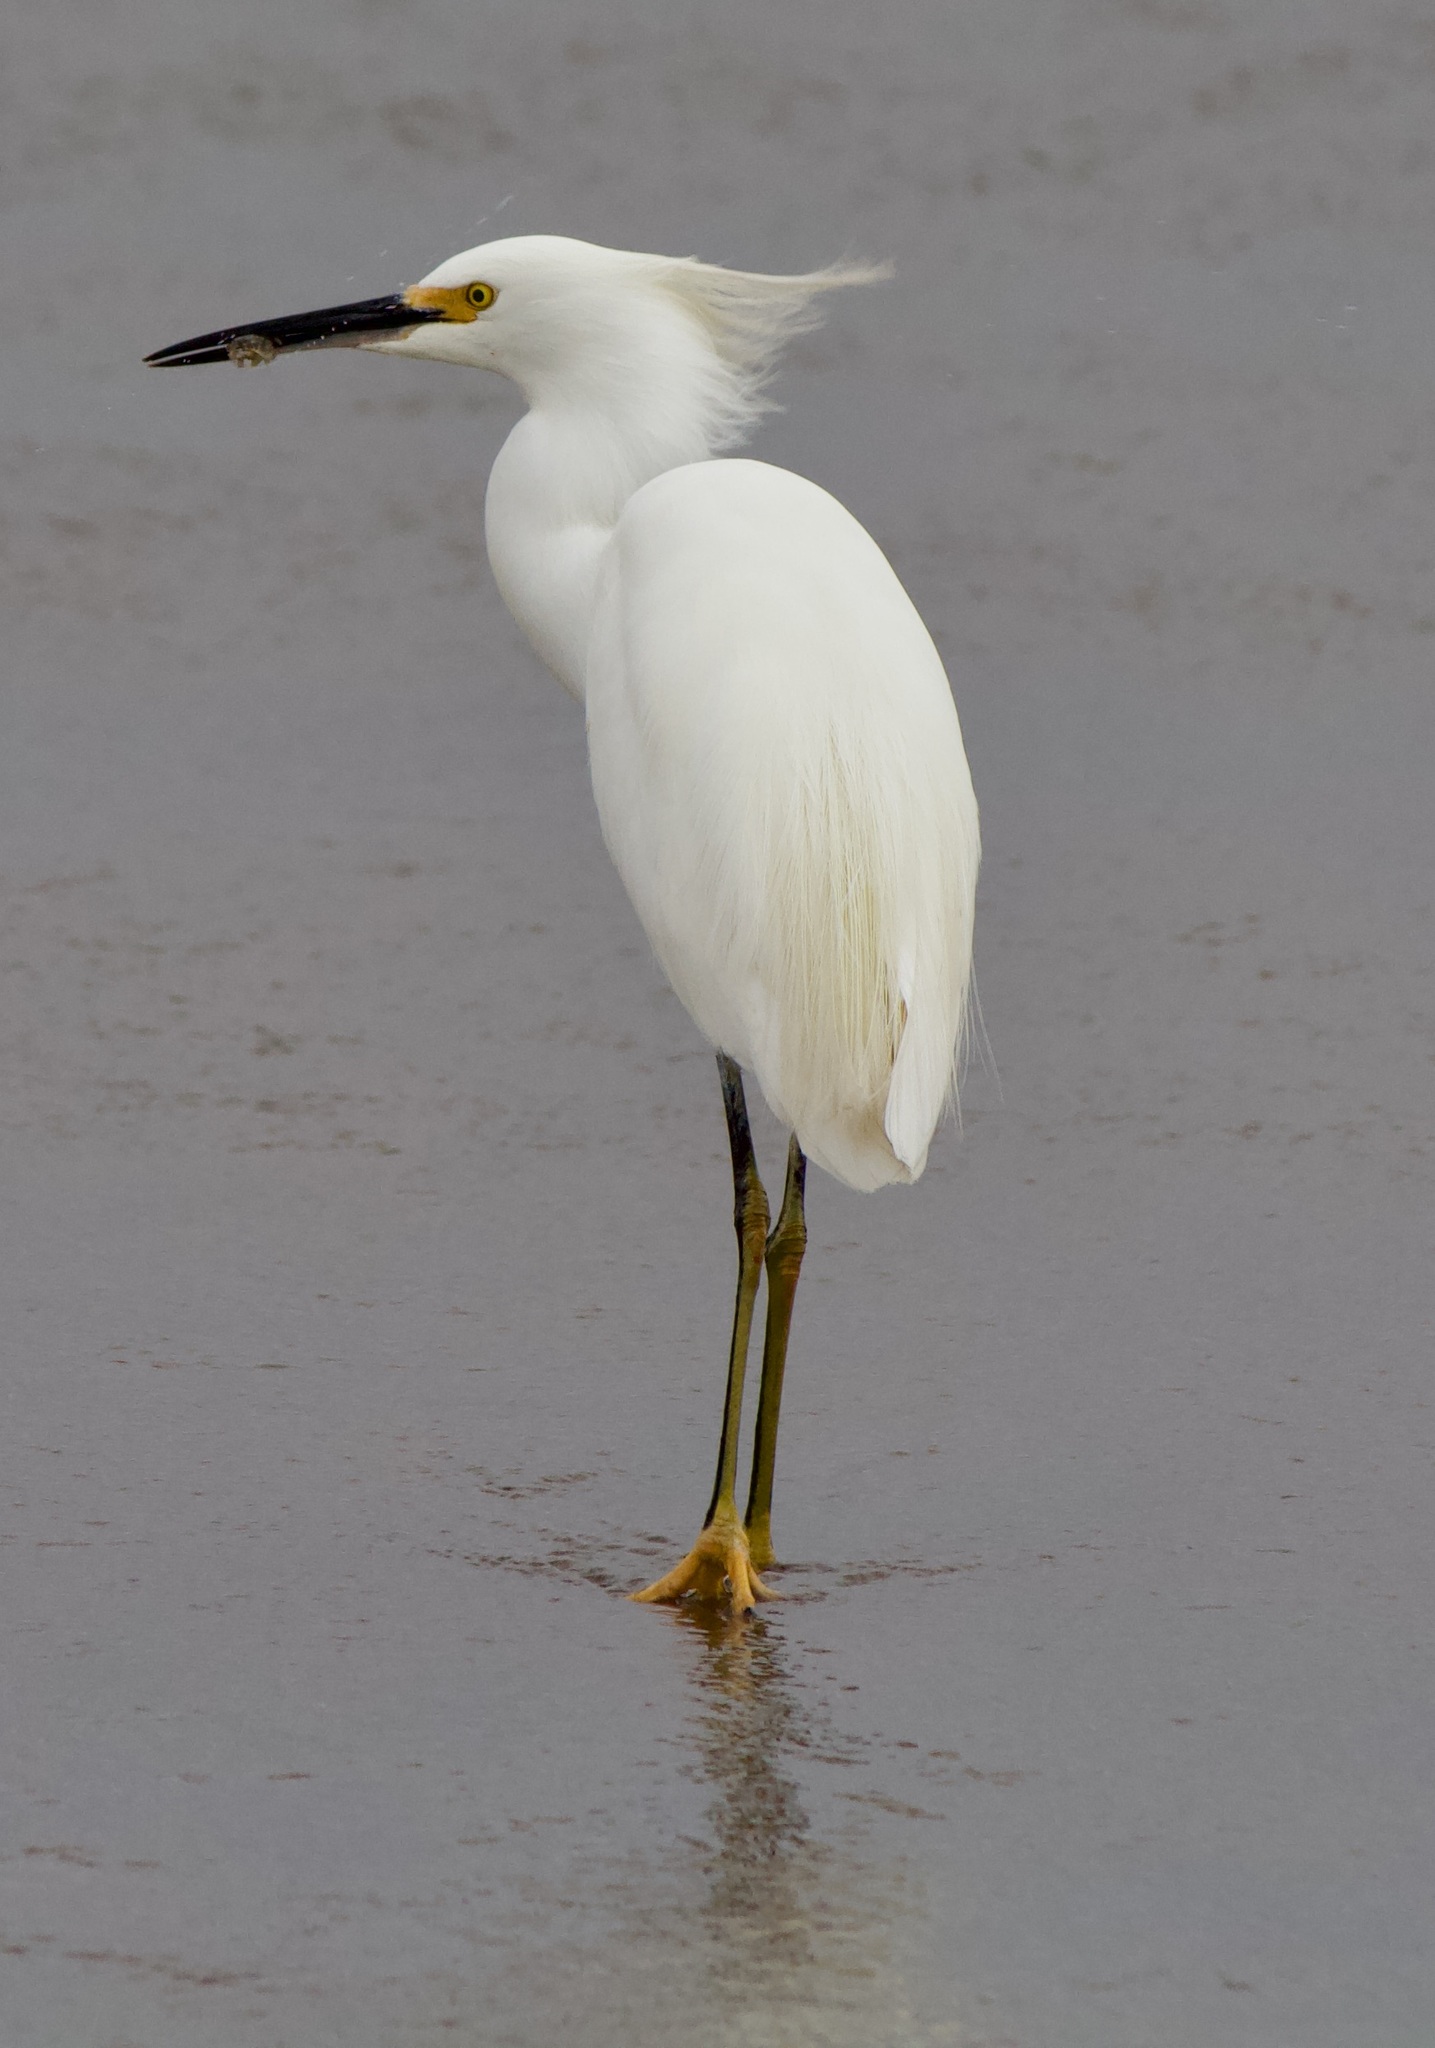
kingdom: Animalia
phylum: Chordata
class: Aves
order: Pelecaniformes
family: Ardeidae
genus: Egretta
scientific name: Egretta thula
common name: Snowy egret
